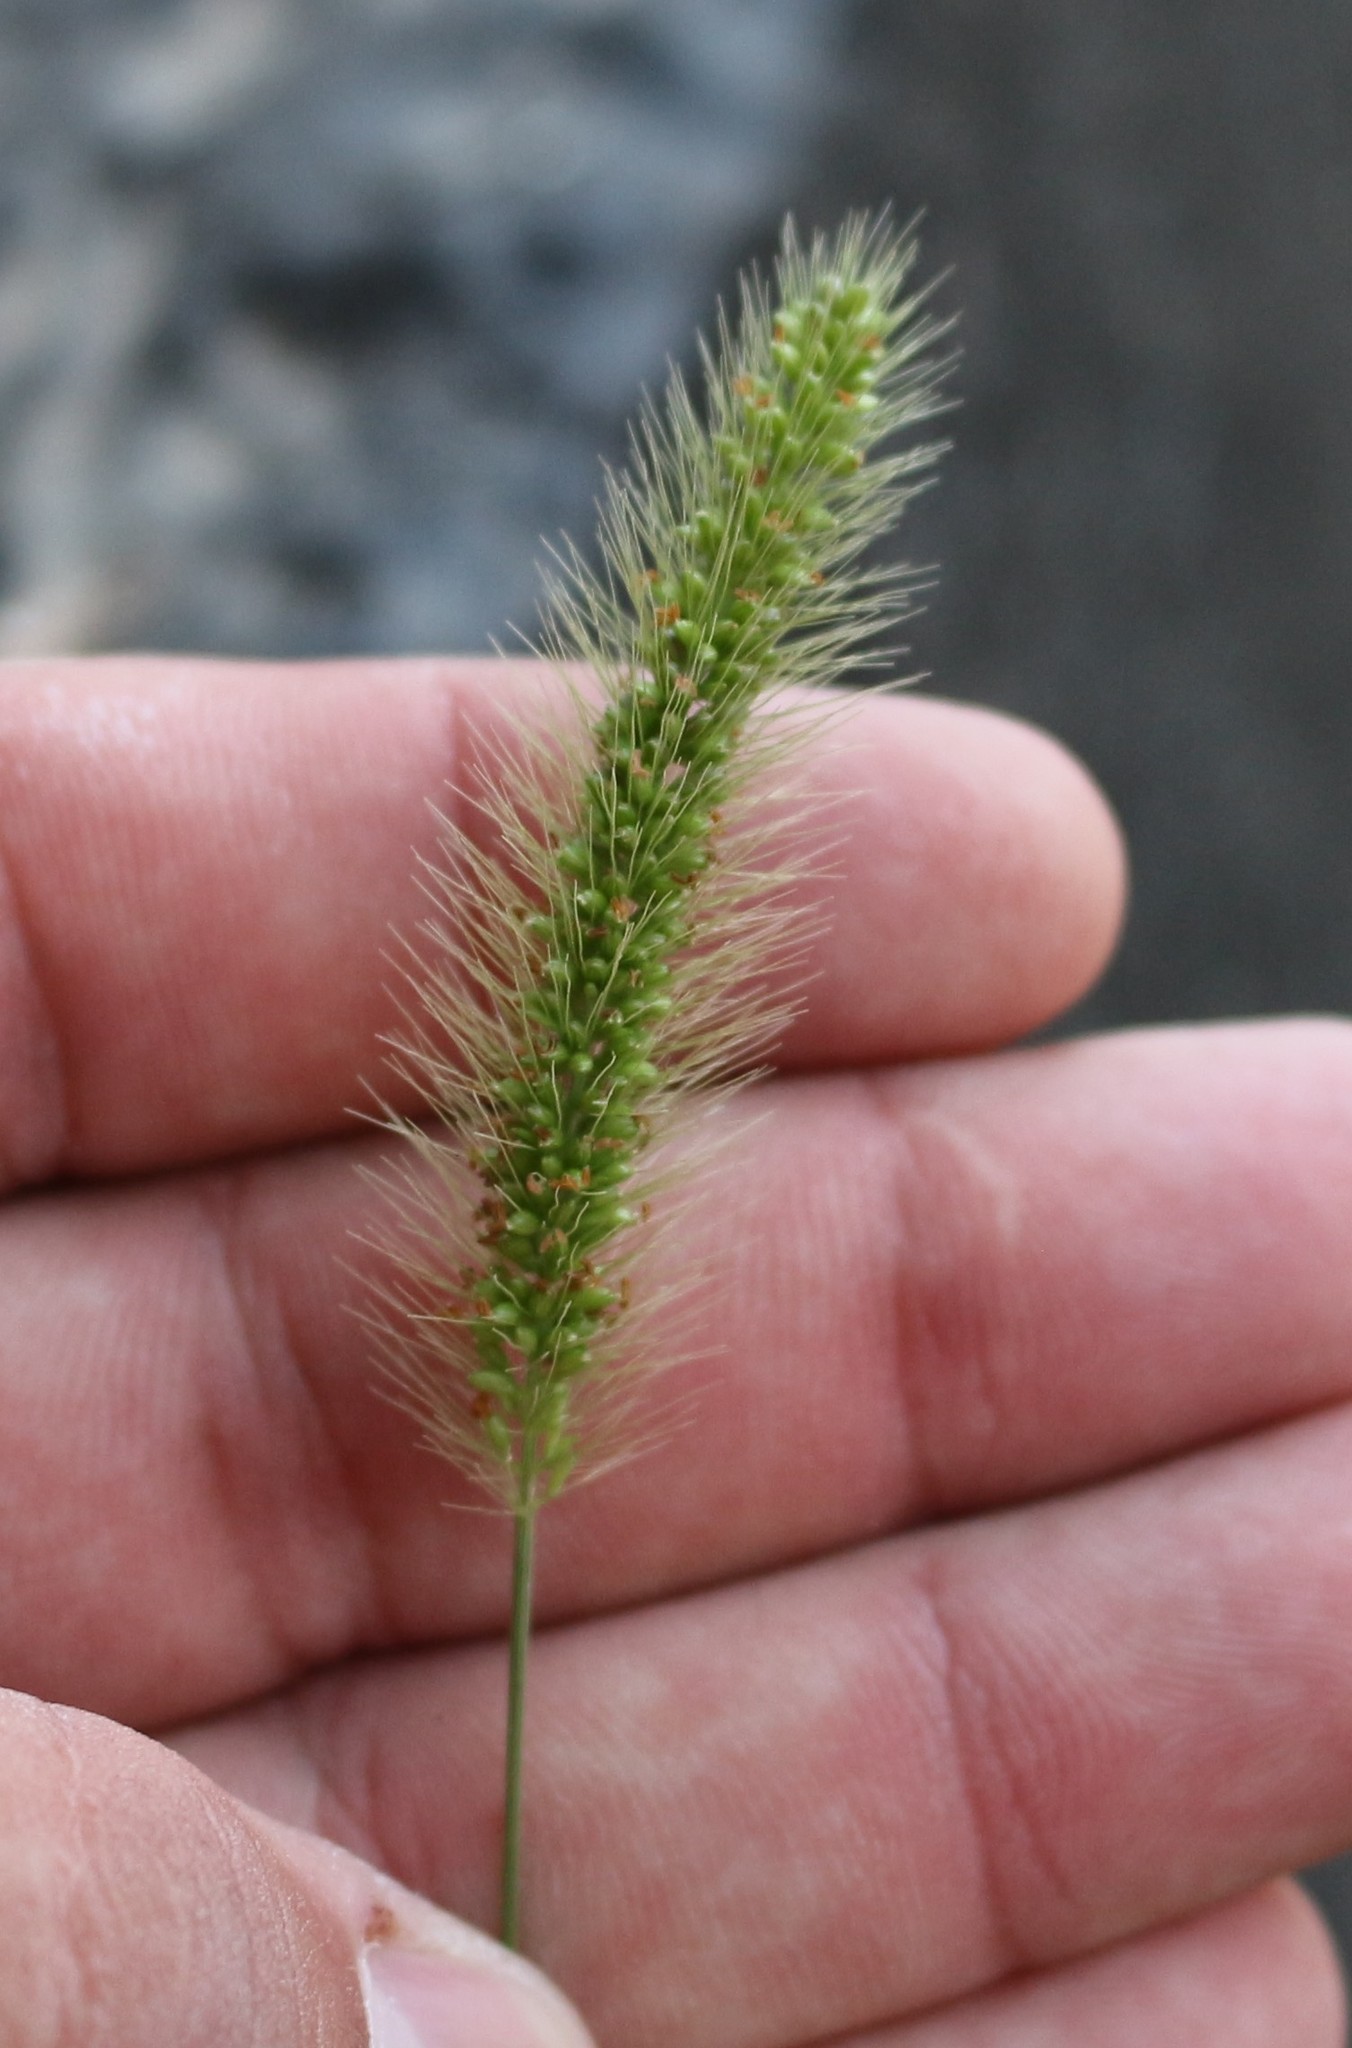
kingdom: Plantae
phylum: Tracheophyta
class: Liliopsida
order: Poales
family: Poaceae
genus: Setaria
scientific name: Setaria viridis
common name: Green bristlegrass
